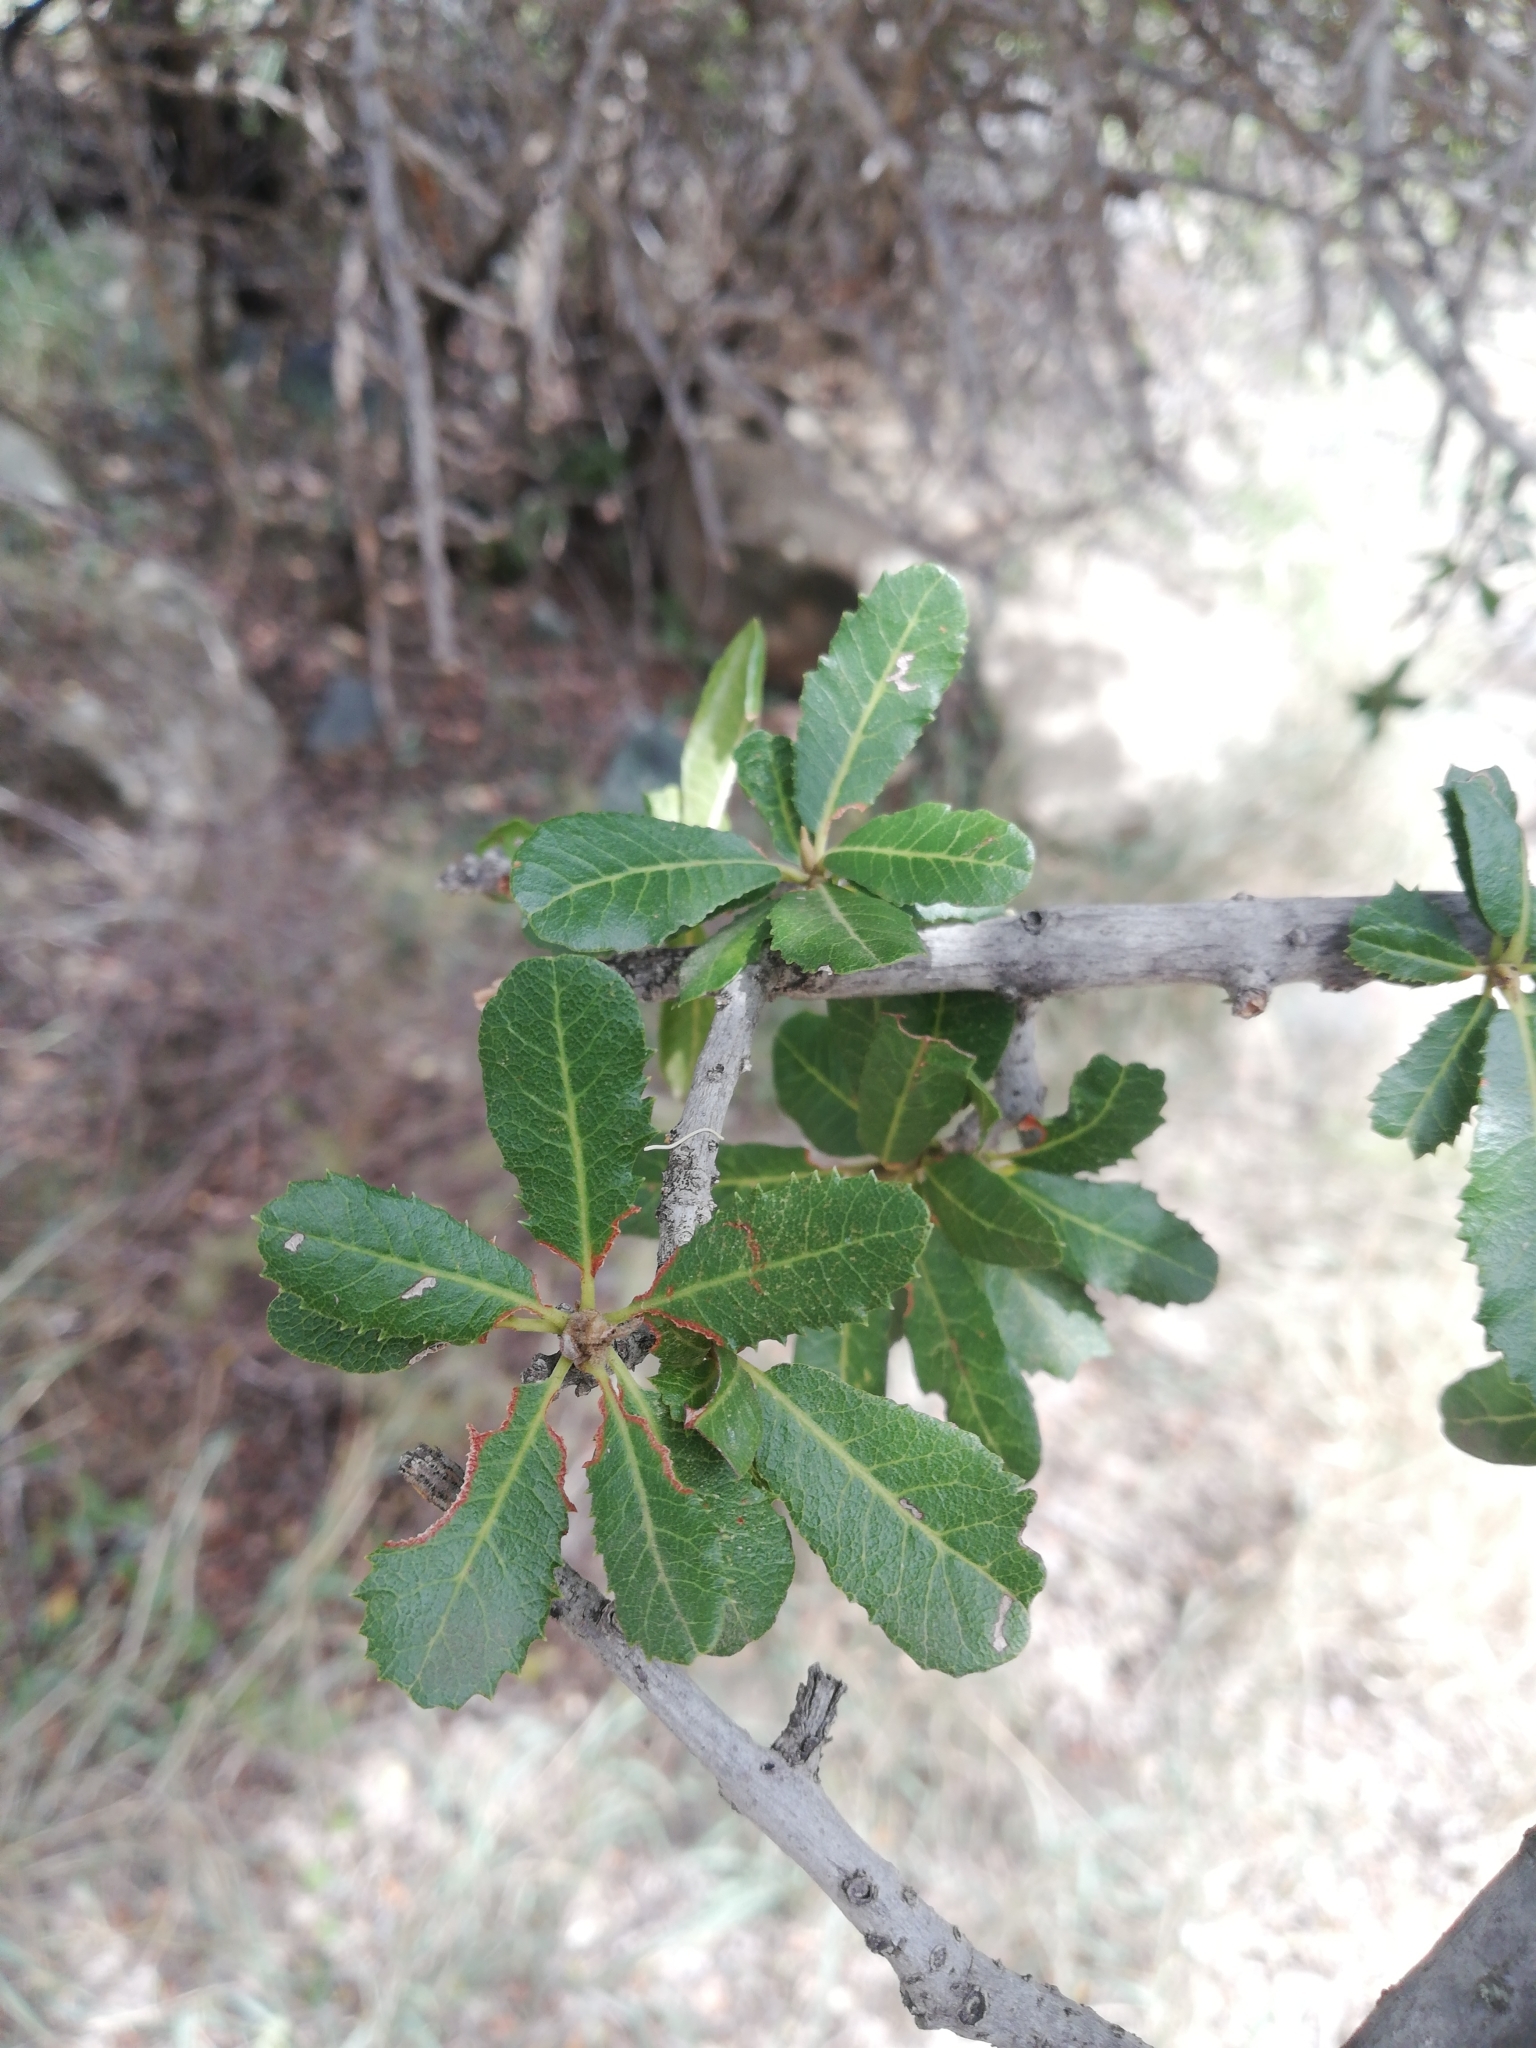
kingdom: Plantae
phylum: Tracheophyta
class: Magnoliopsida
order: Sapindales
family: Sapindaceae
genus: Pappea
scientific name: Pappea capensis
